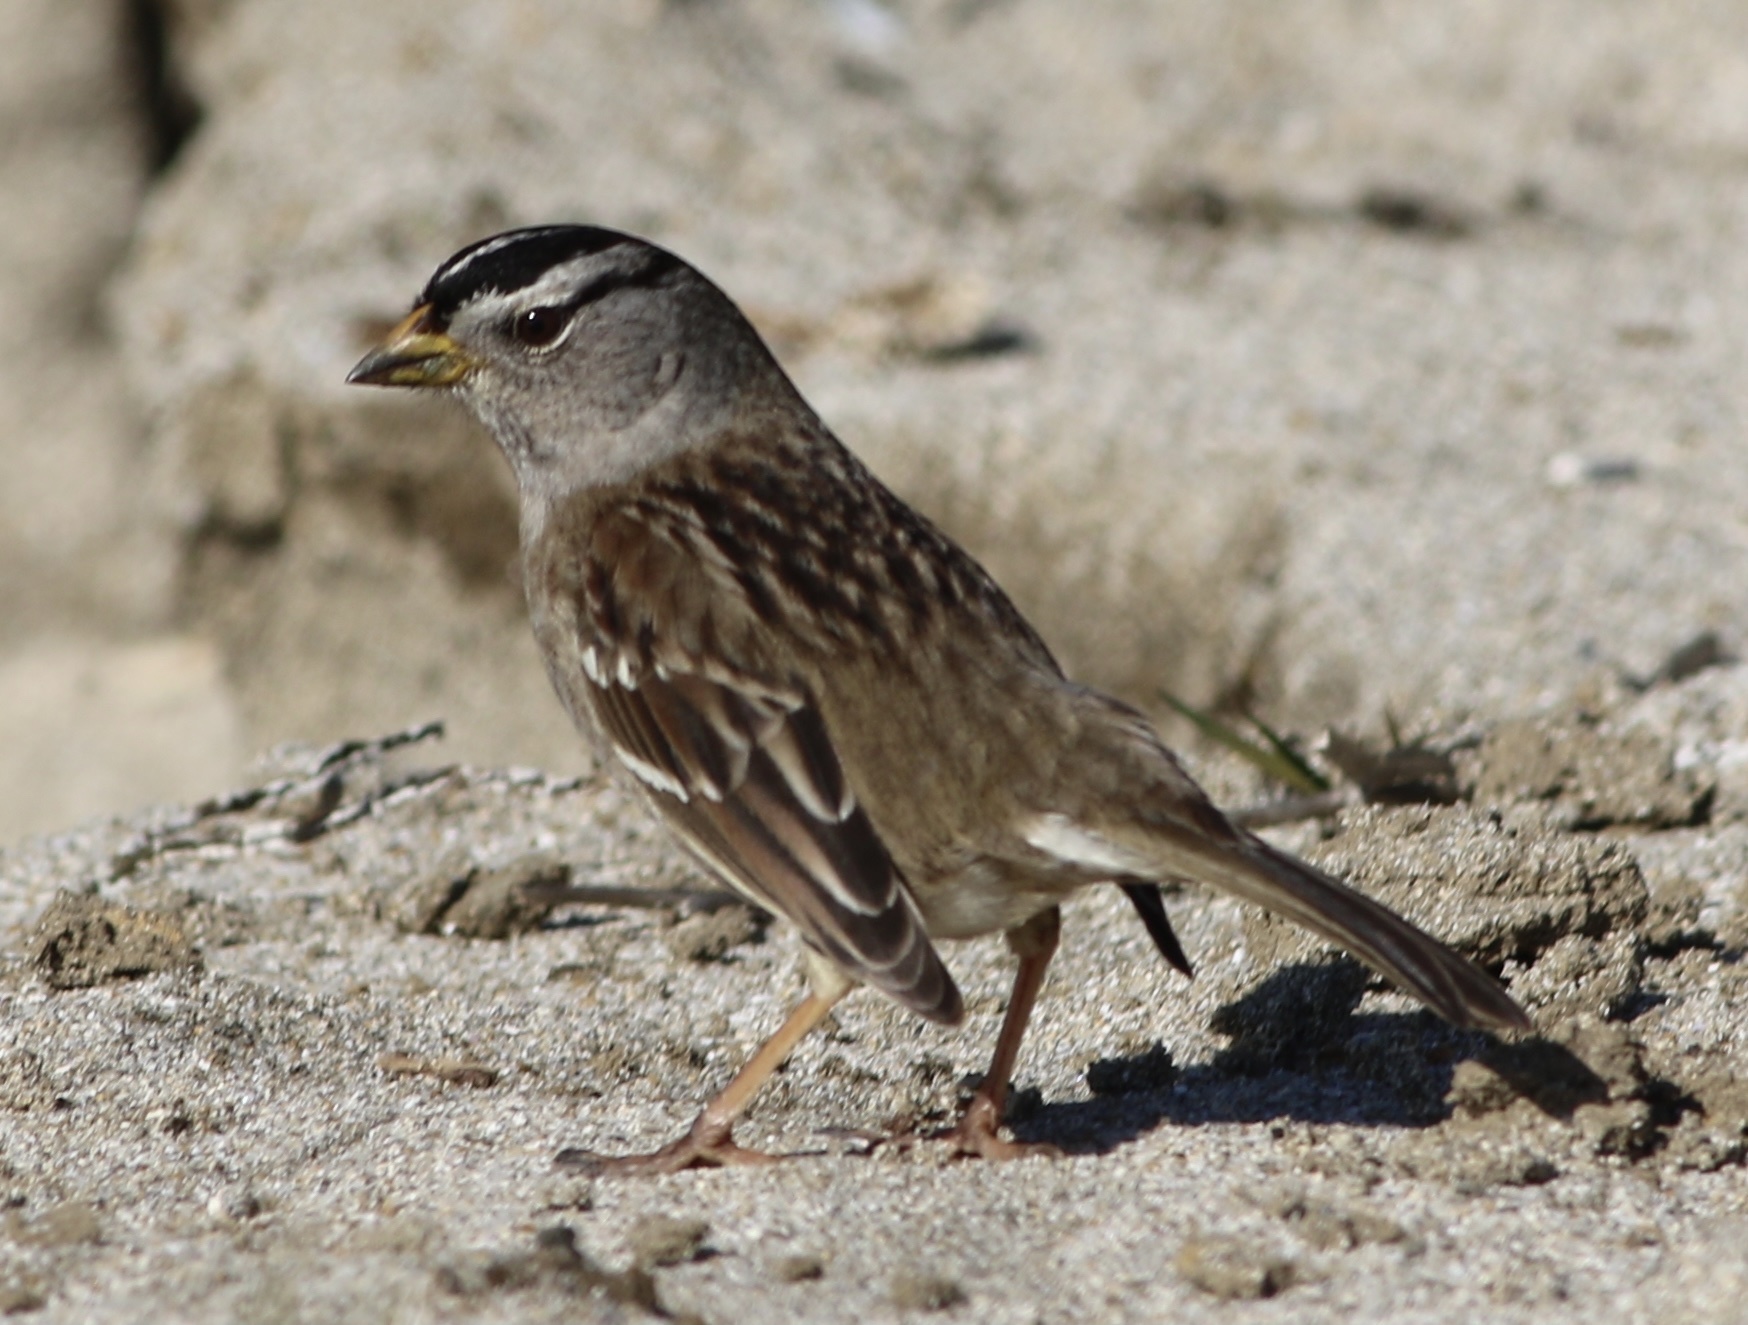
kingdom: Animalia
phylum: Chordata
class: Aves
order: Passeriformes
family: Passerellidae
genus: Zonotrichia
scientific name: Zonotrichia leucophrys
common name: White-crowned sparrow
